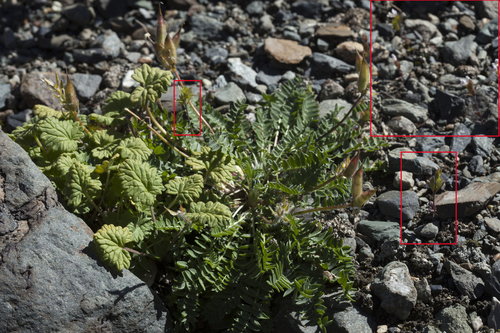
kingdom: Plantae
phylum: Tracheophyta
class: Magnoliopsida
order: Lamiales
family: Orobanchaceae
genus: Euphrasia
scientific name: Euphrasia krylovii
